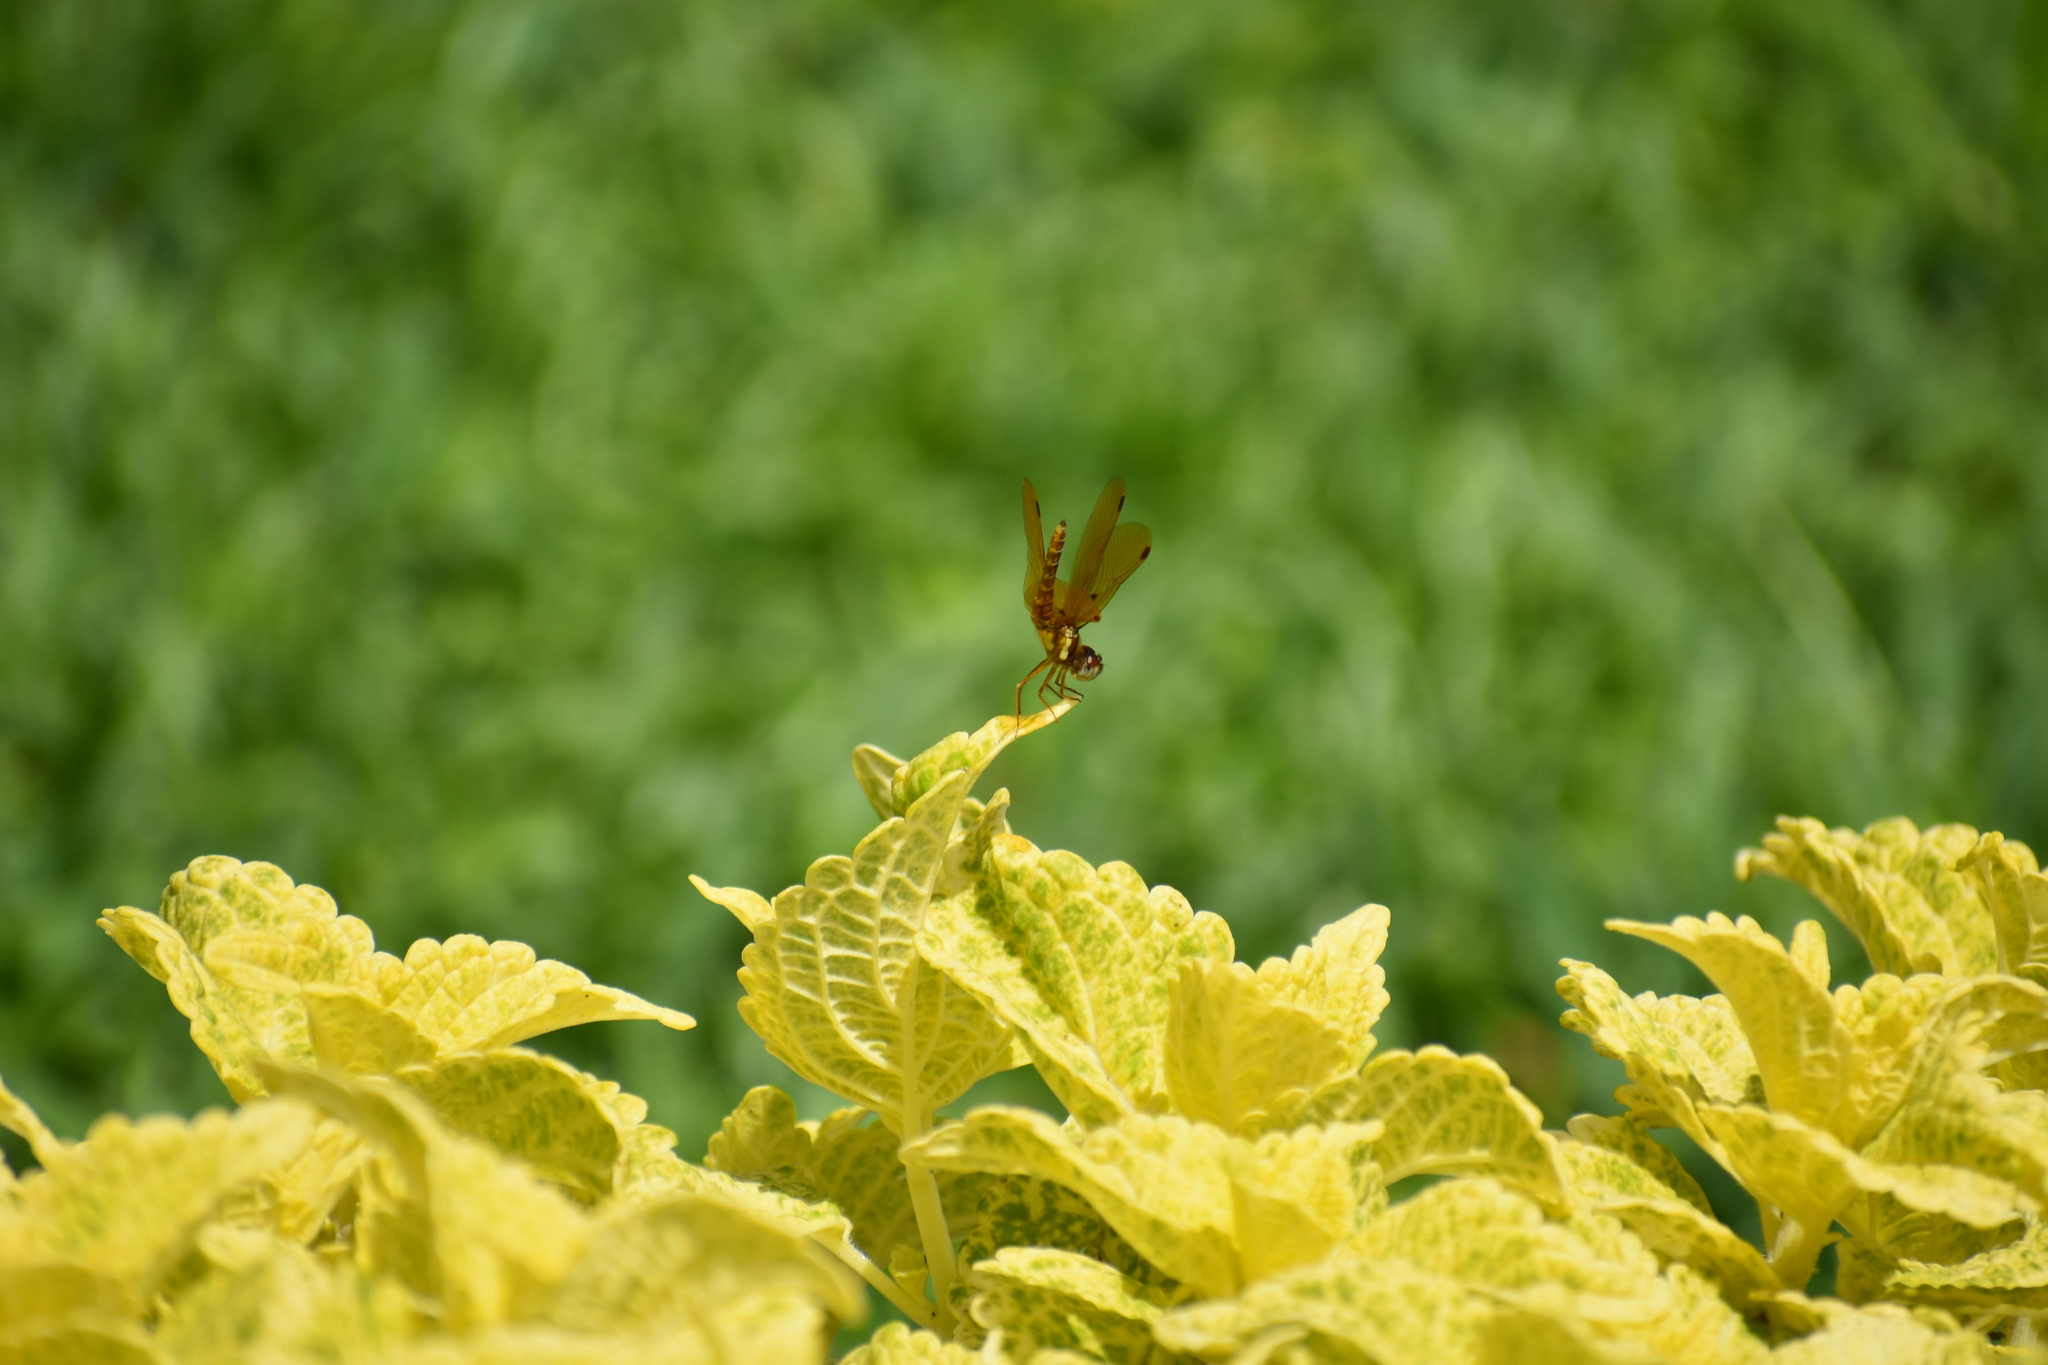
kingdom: Animalia
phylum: Arthropoda
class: Insecta
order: Odonata
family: Libellulidae
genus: Perithemis
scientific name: Perithemis tenera
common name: Eastern amberwing
